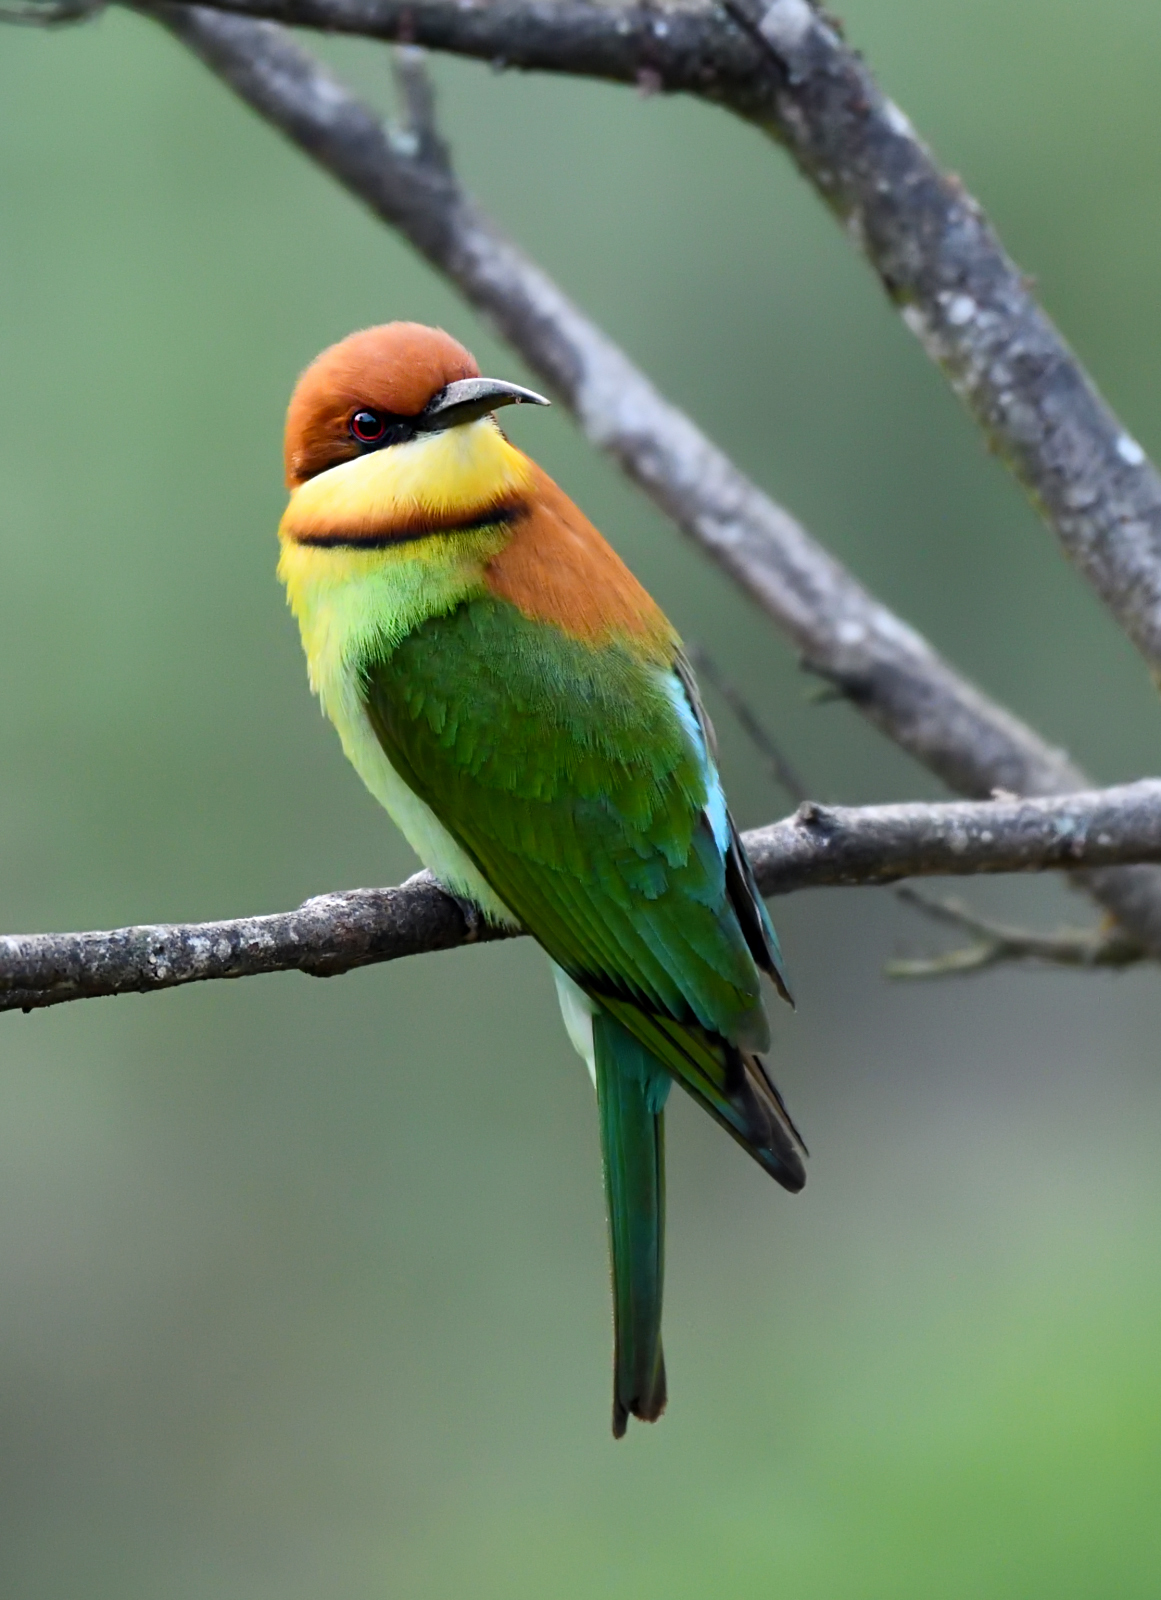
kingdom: Animalia
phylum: Chordata
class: Aves
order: Coraciiformes
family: Meropidae
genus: Merops
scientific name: Merops leschenaulti
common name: Chestnut-headed bee-eater
